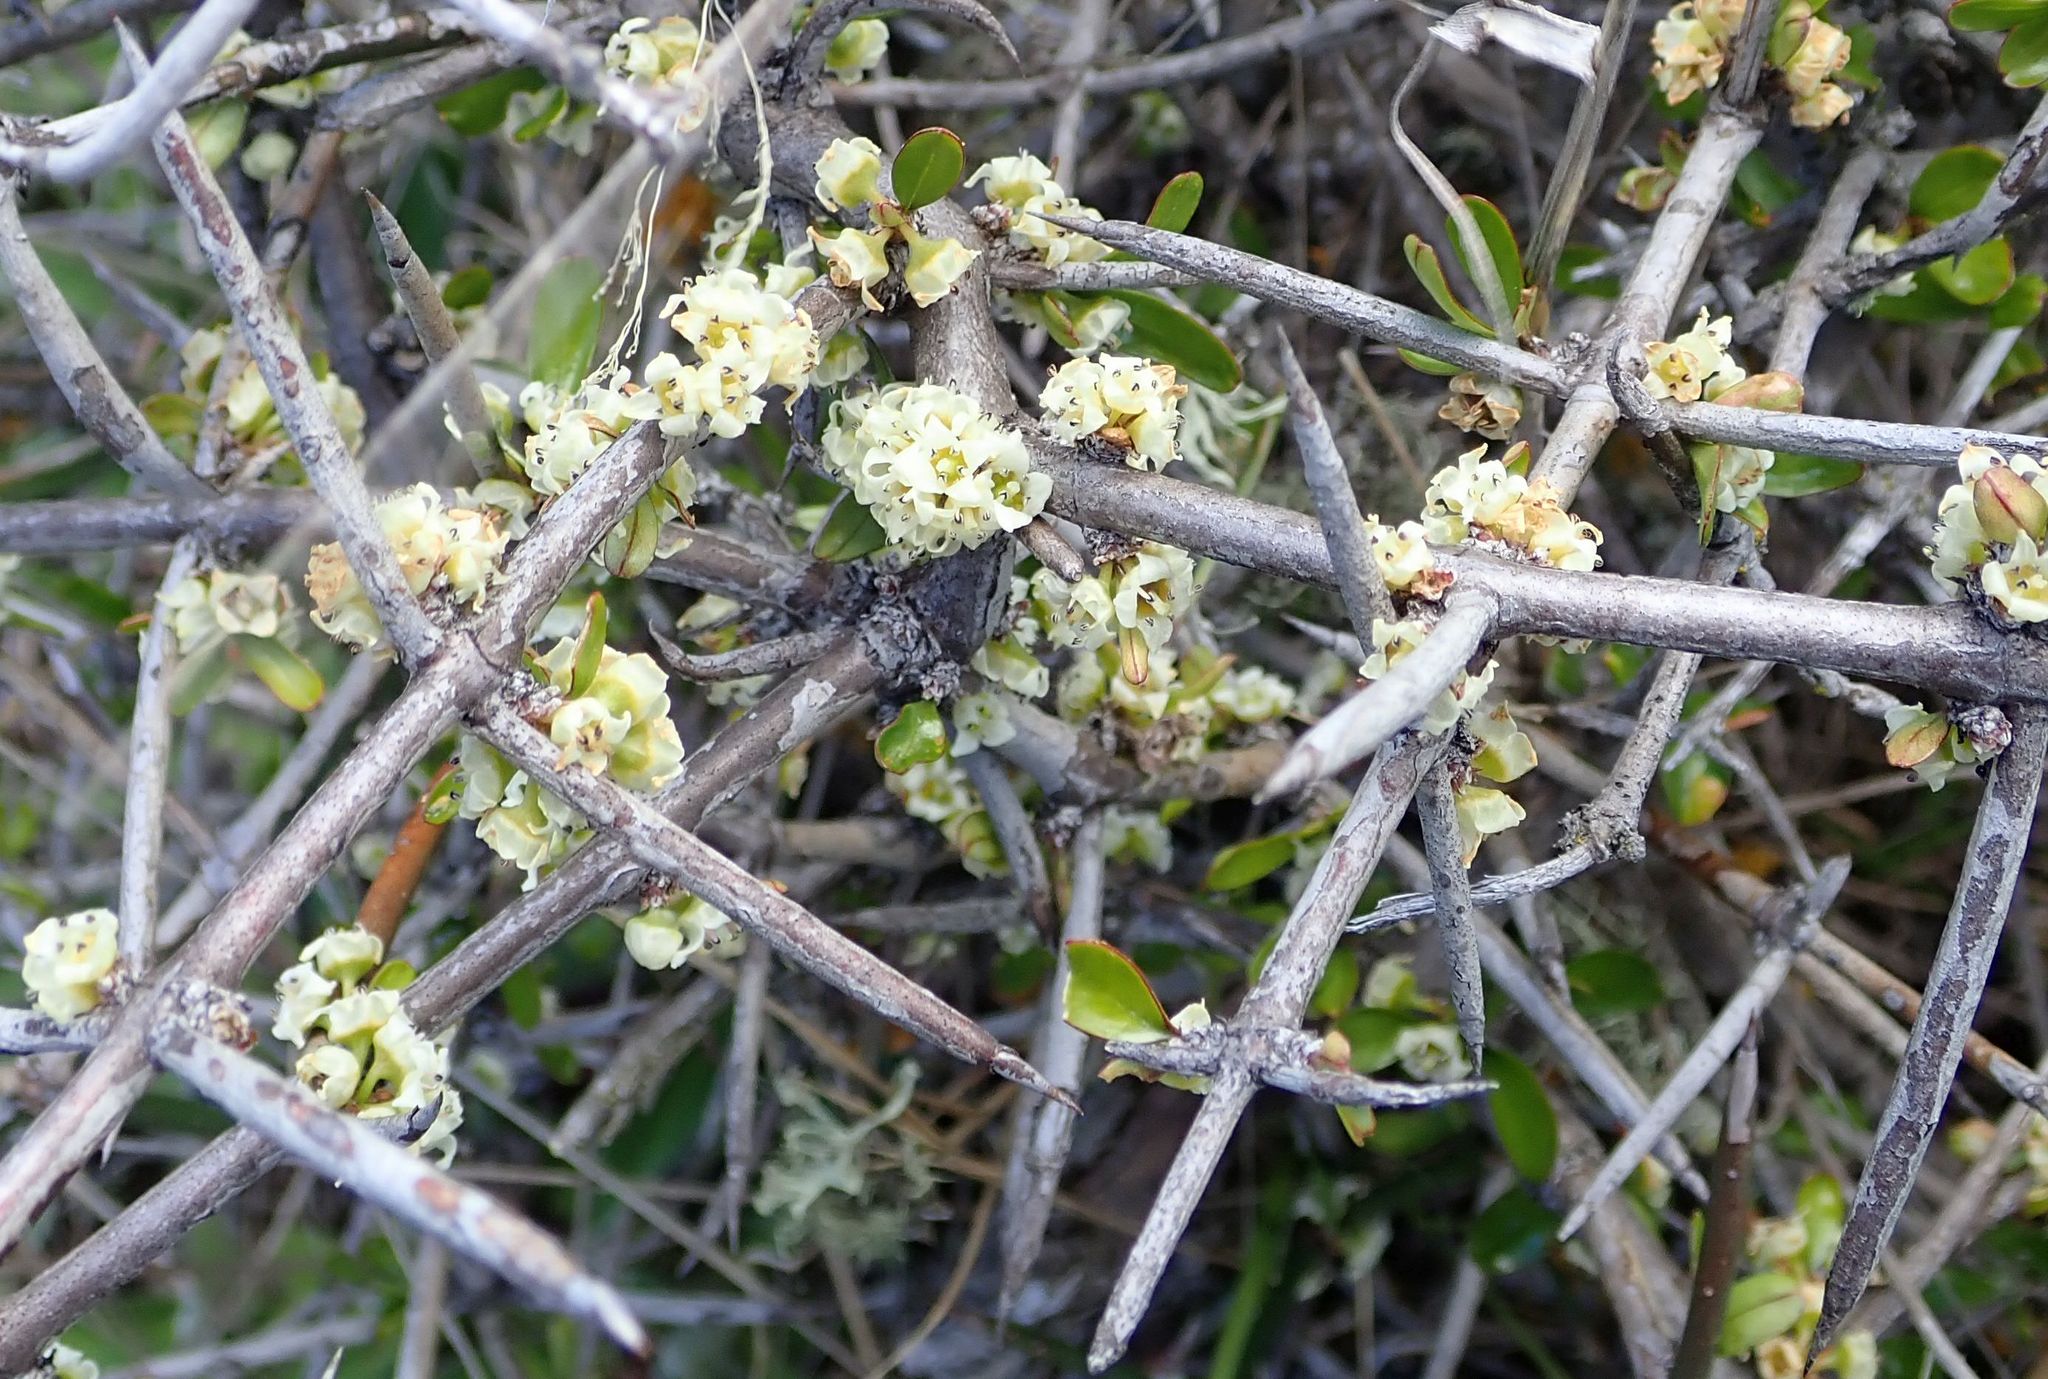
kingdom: Plantae
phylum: Tracheophyta
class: Magnoliopsida
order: Rosales
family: Rhamnaceae
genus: Discaria
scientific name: Discaria toumatou
